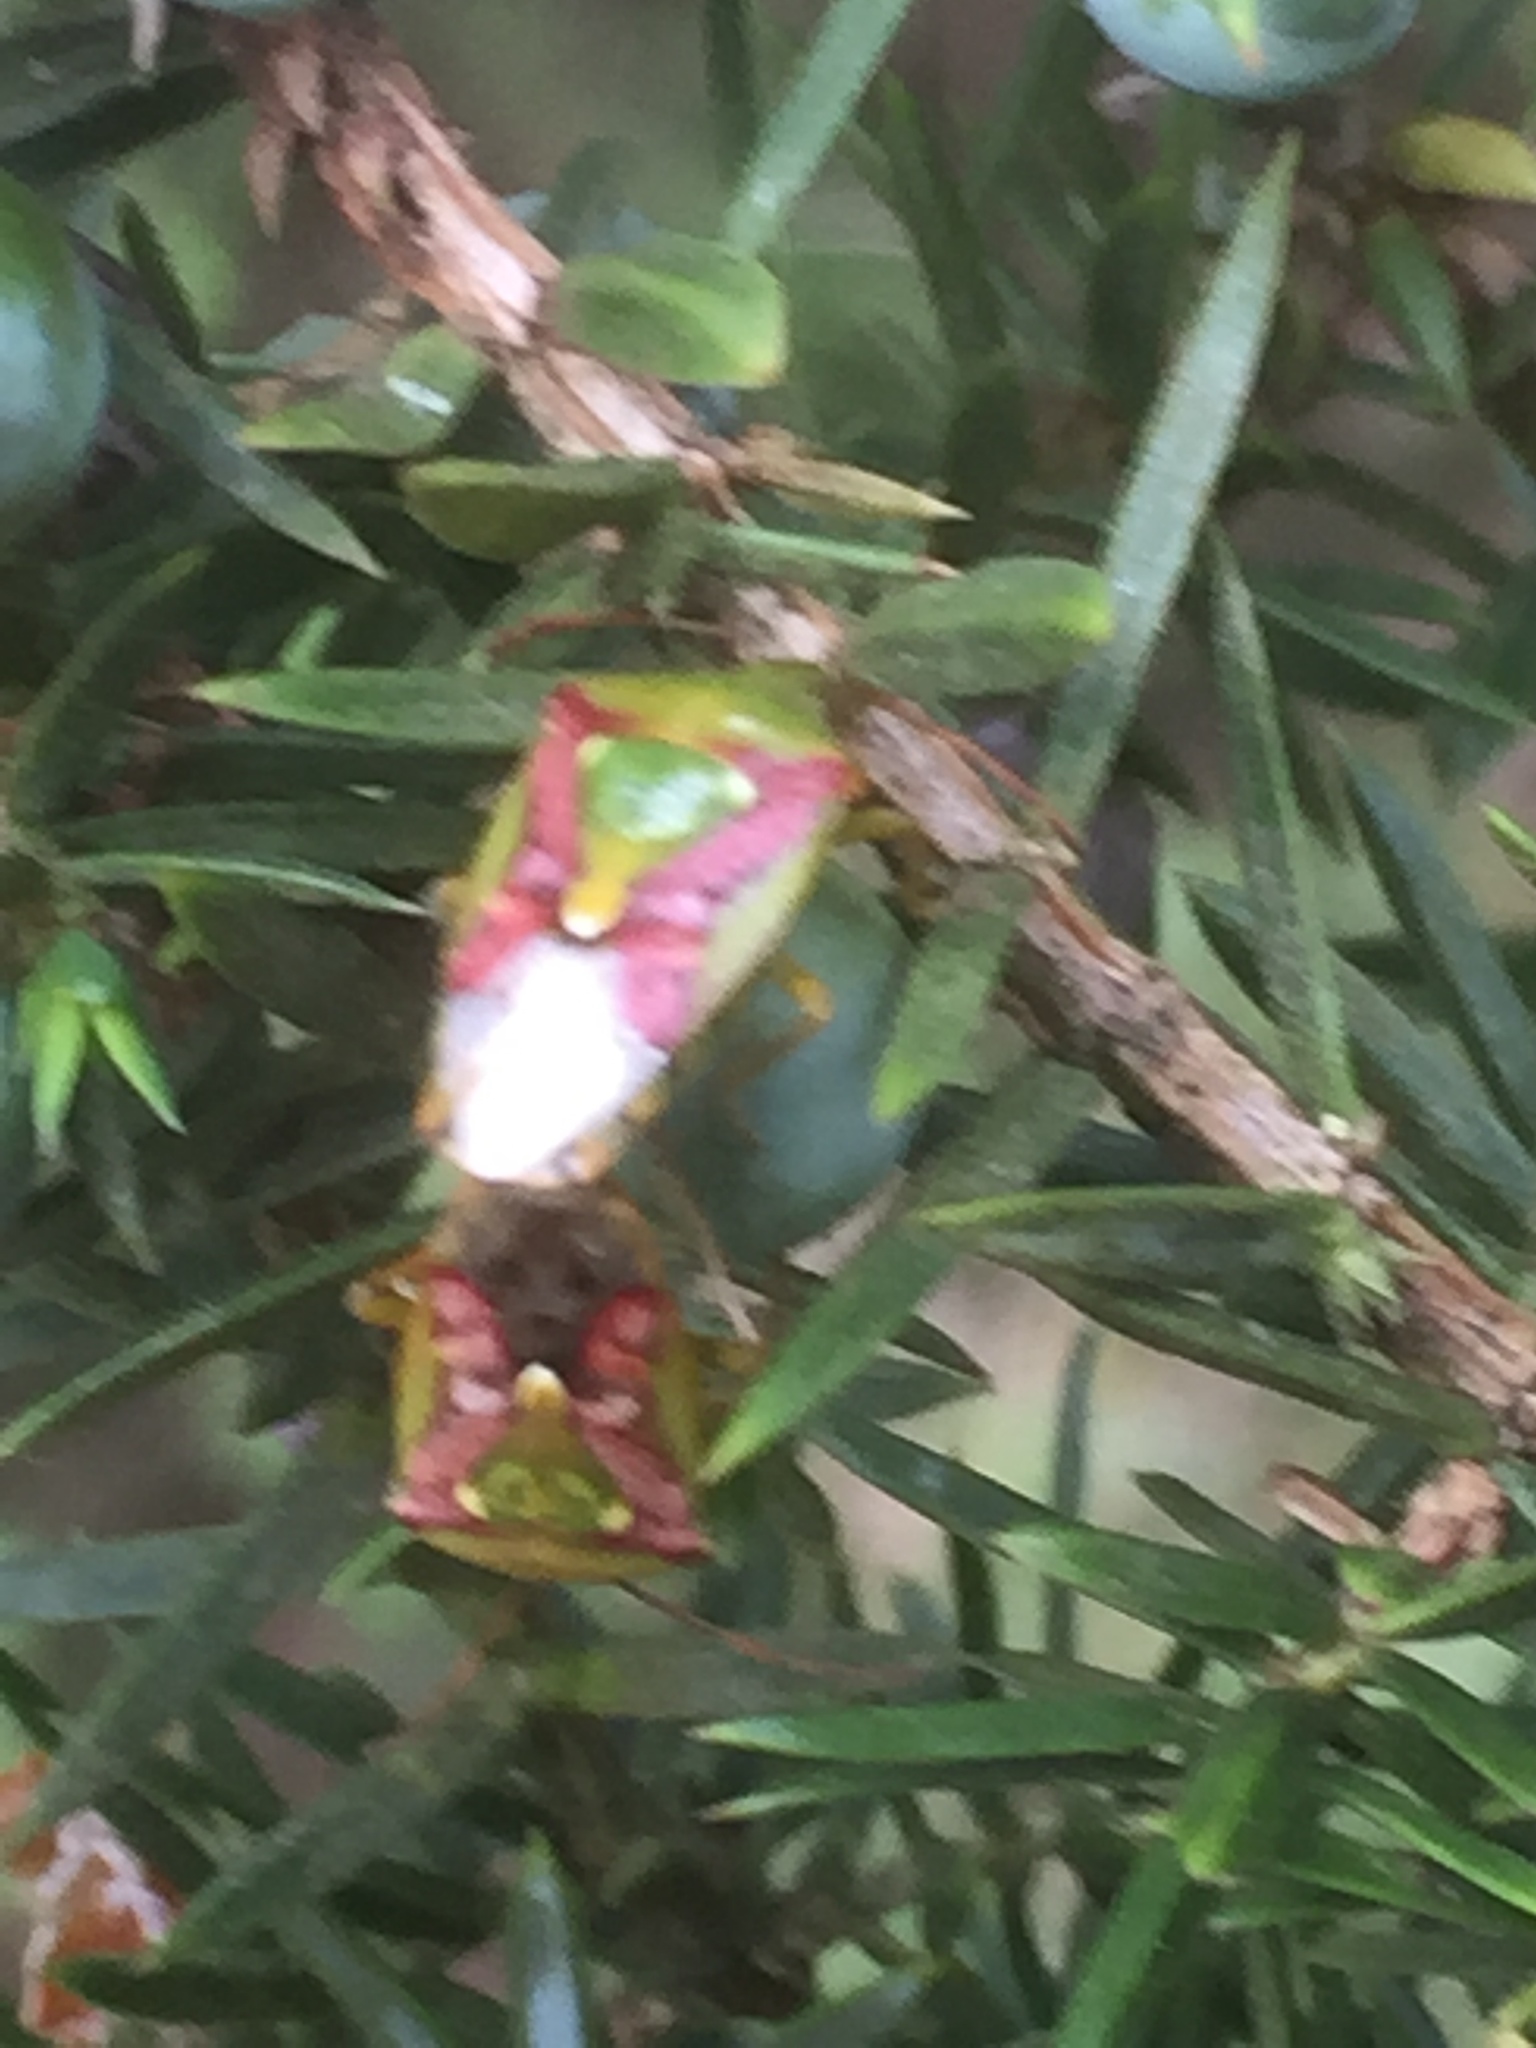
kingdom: Animalia
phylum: Arthropoda
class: Insecta
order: Hemiptera
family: Acanthosomatidae
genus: Cyphostethus
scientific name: Cyphostethus tristriatus
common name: Juniper shieldbug
